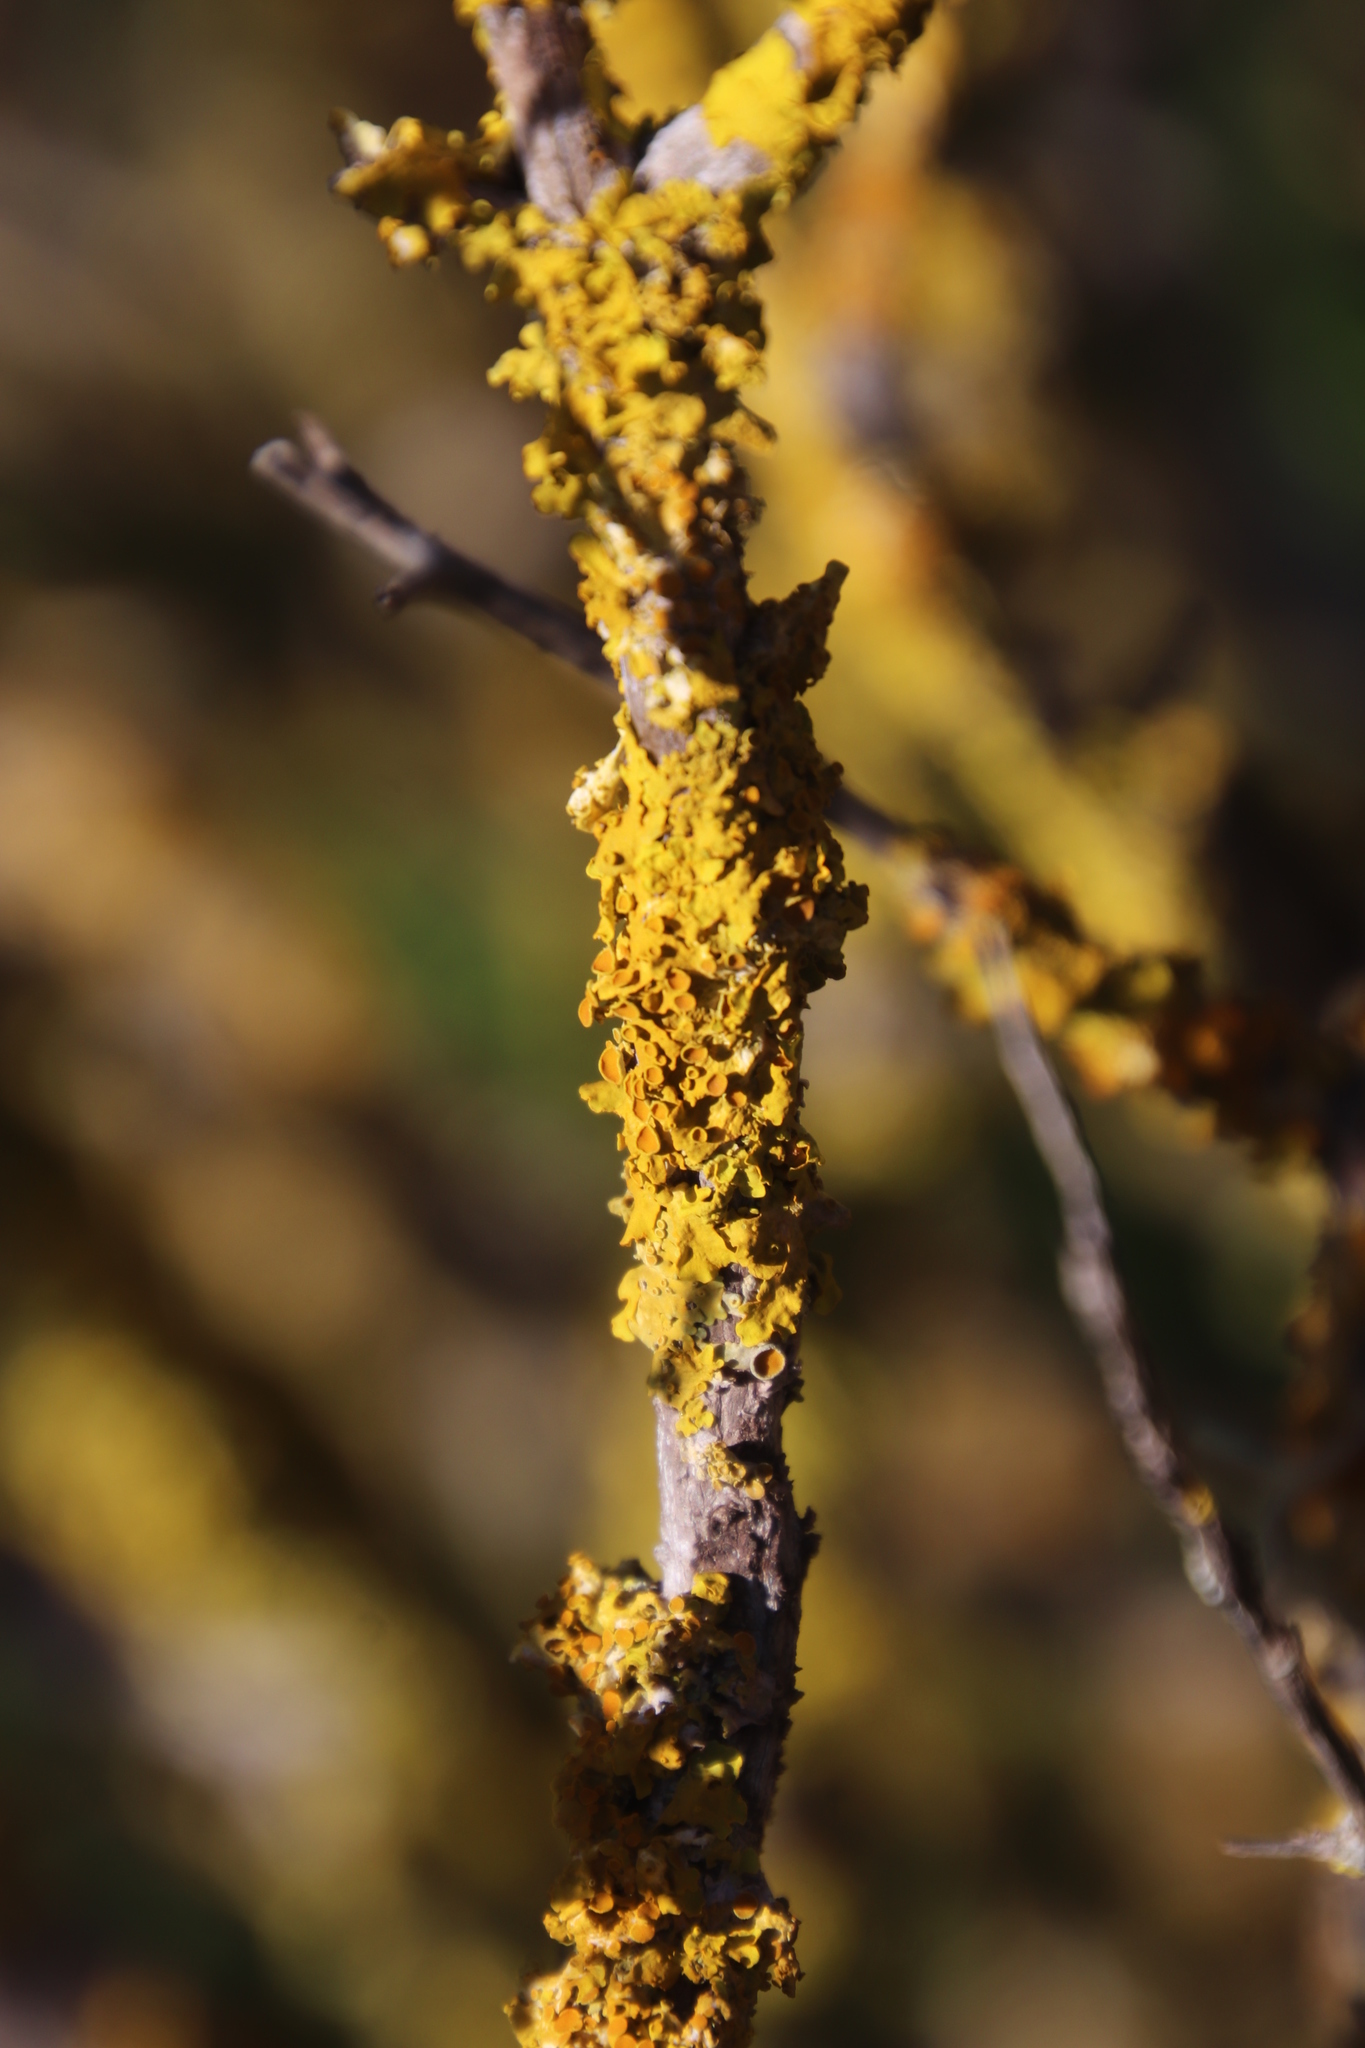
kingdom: Fungi
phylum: Ascomycota
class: Lecanoromycetes
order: Teloschistales
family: Teloschistaceae
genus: Xanthoria
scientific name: Xanthoria parietina
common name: Common orange lichen
